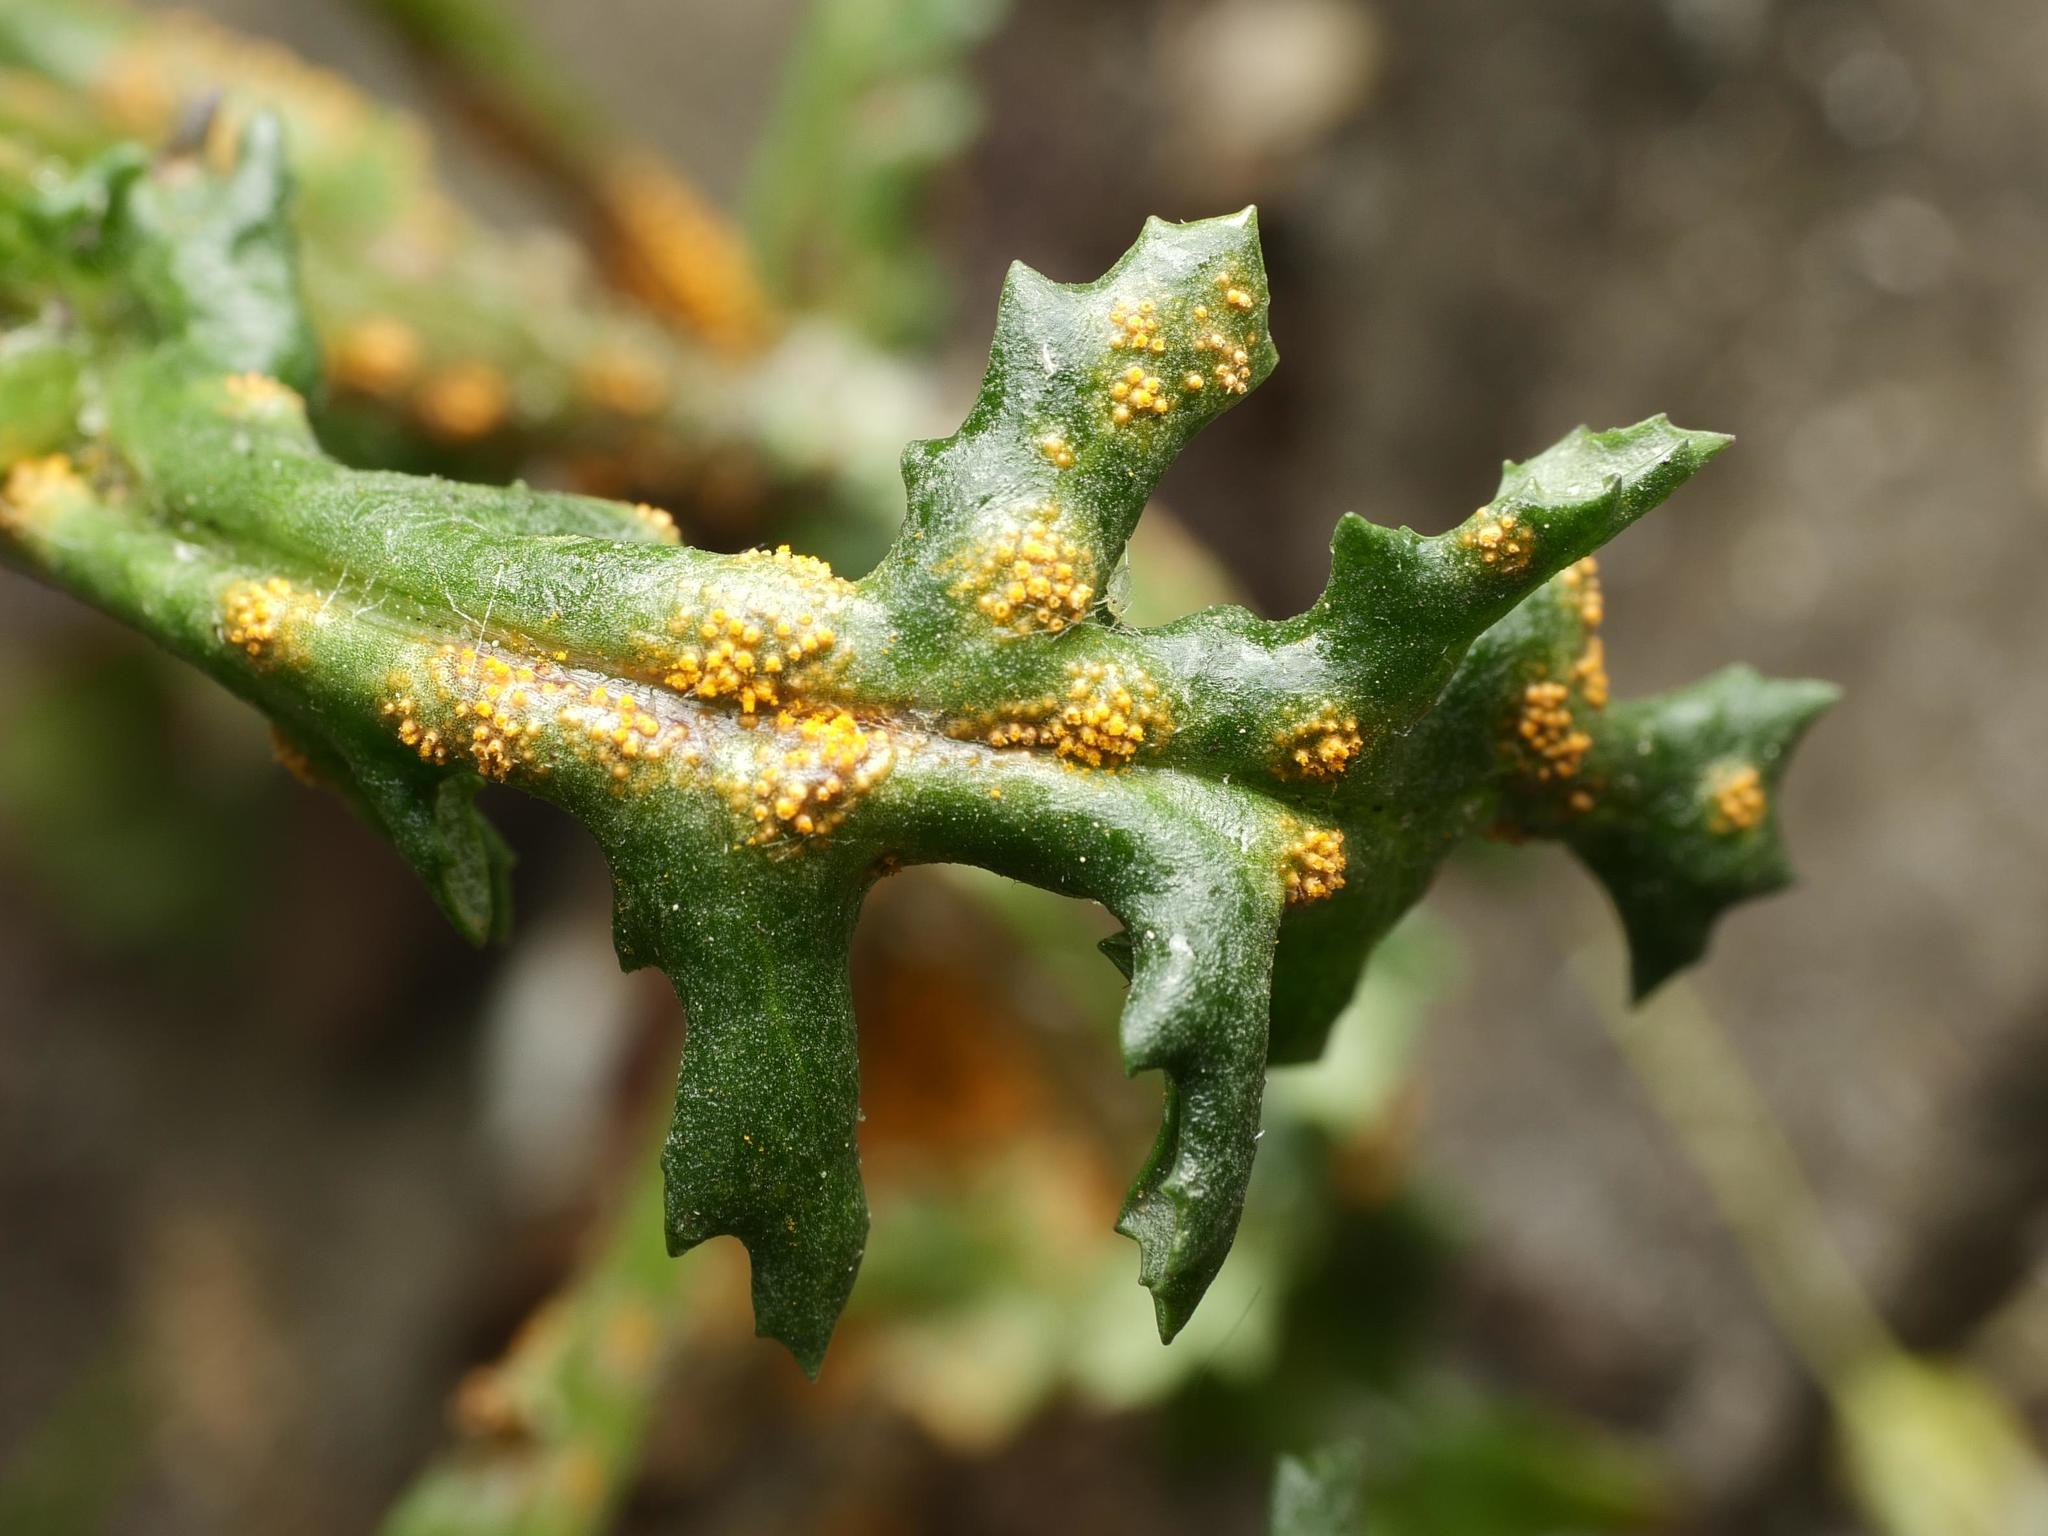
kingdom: Fungi
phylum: Basidiomycota
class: Pucciniomycetes
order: Pucciniales
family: Pucciniaceae
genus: Puccinia
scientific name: Puccinia lagenophorae
